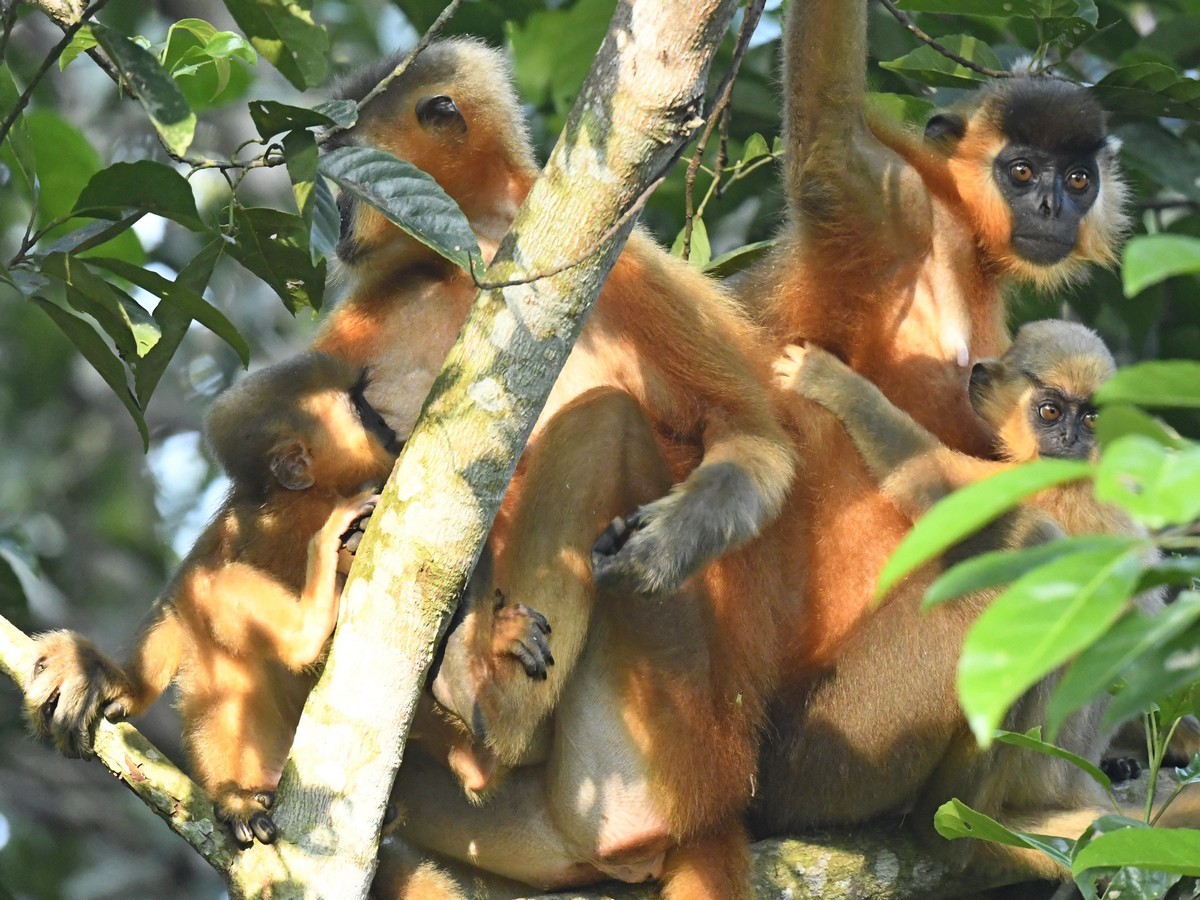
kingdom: Animalia
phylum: Chordata
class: Mammalia
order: Primates
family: Cercopithecidae
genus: Trachypithecus
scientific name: Trachypithecus pileatus
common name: Capped langur
